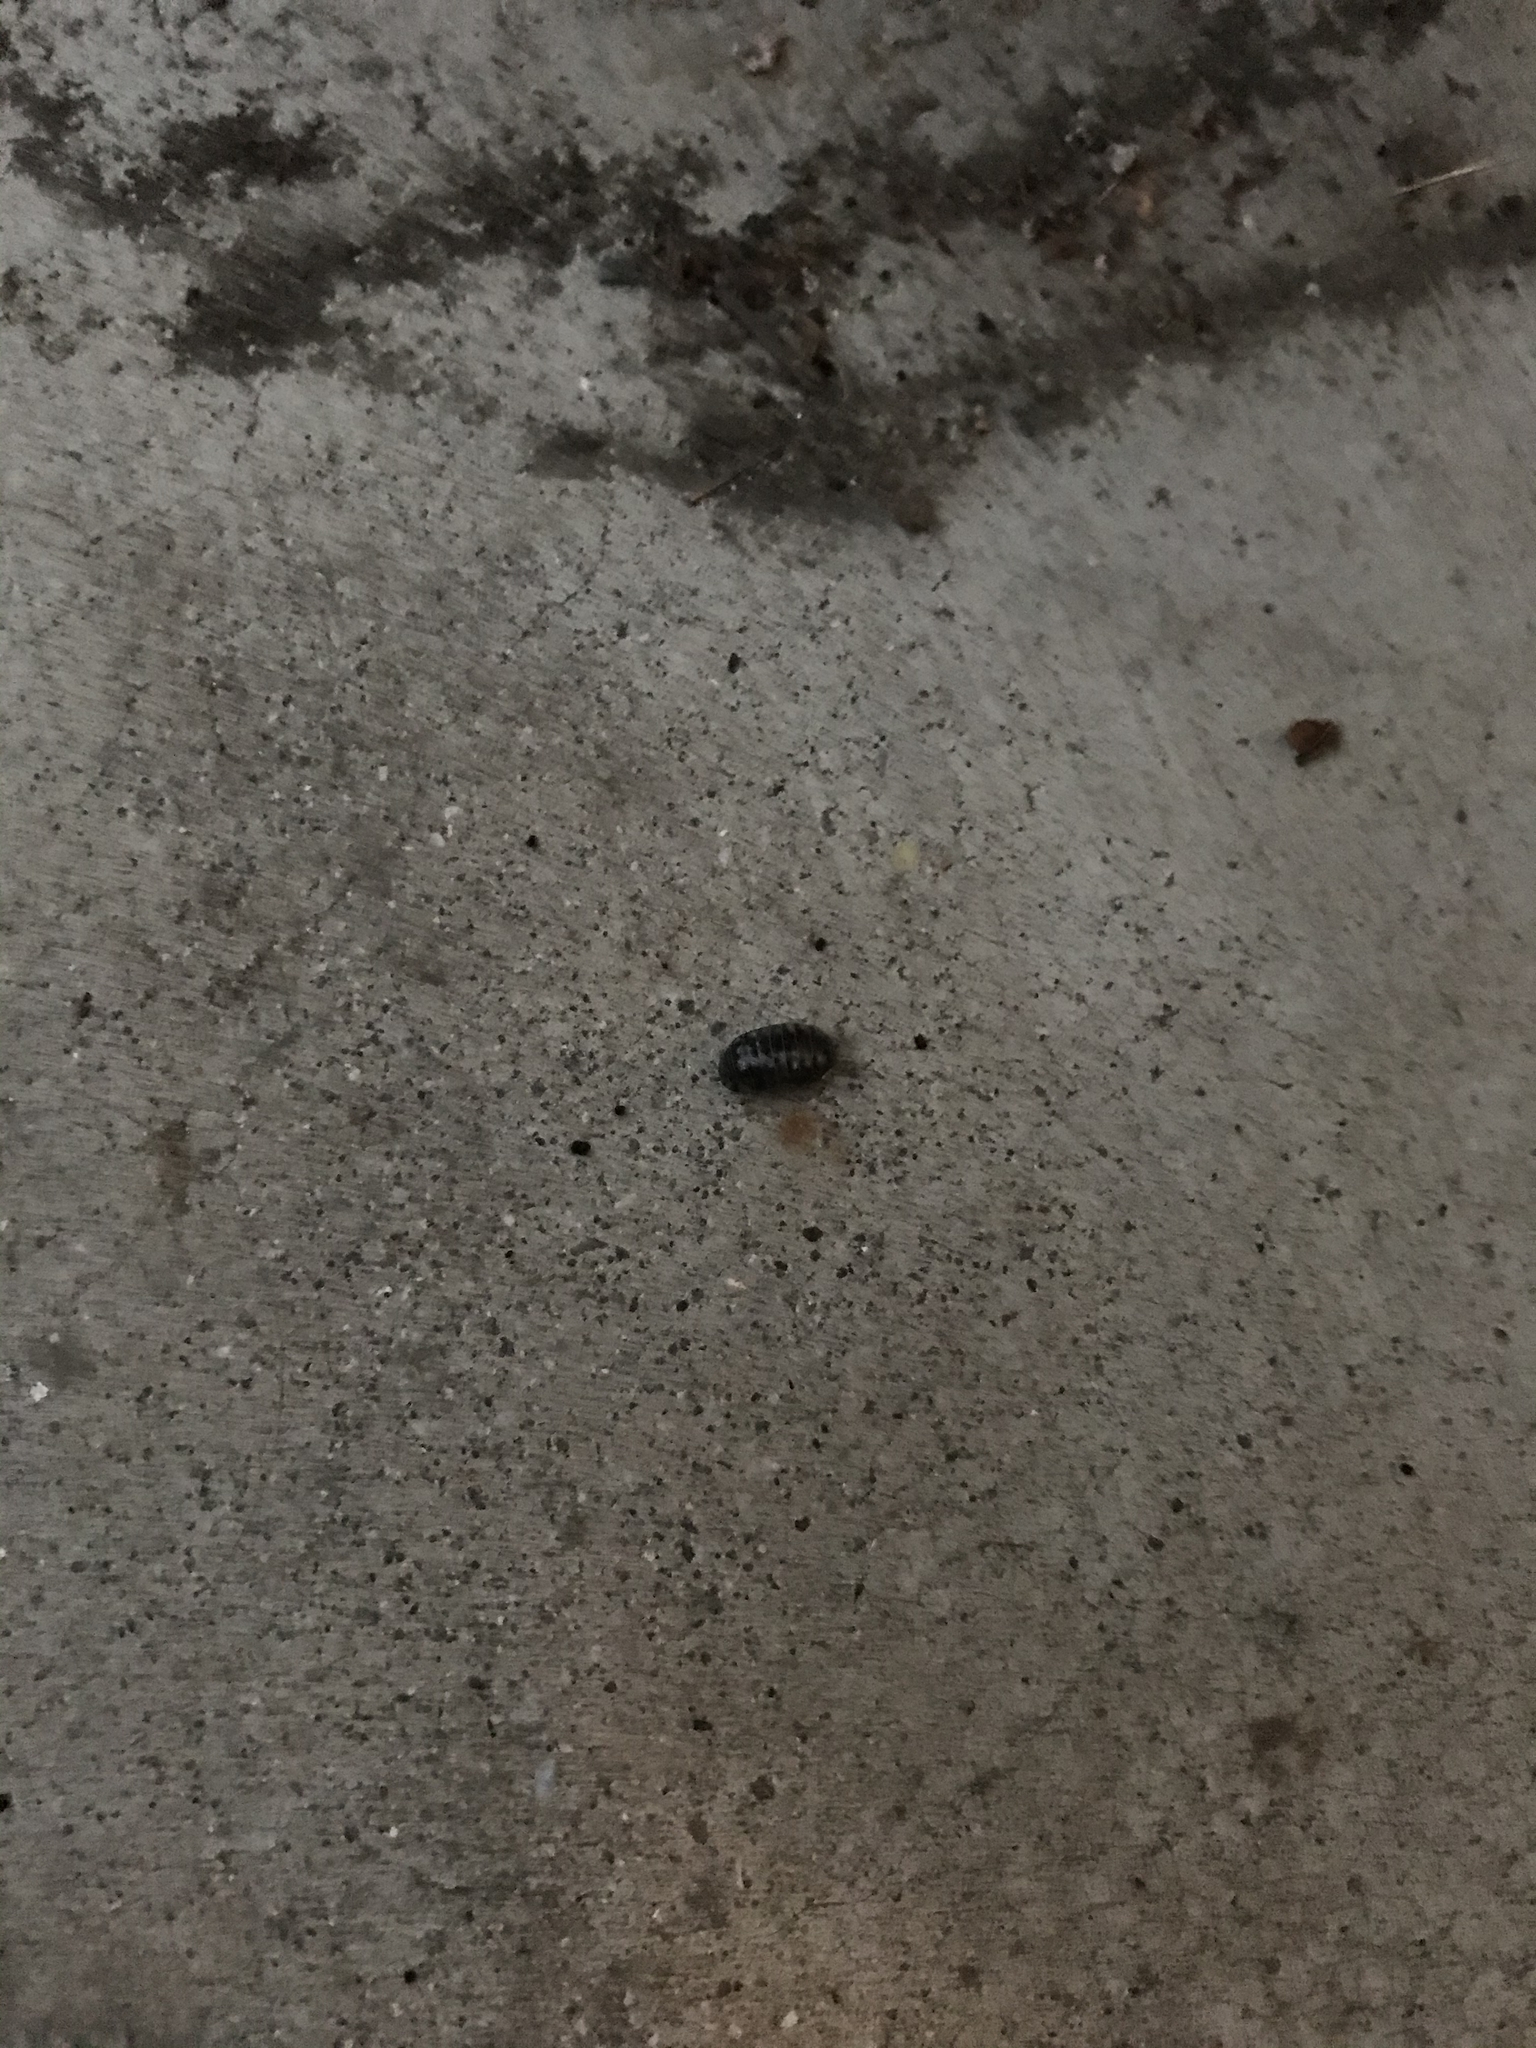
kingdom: Animalia
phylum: Arthropoda
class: Malacostraca
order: Isopoda
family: Armadillidiidae
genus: Armadillidium
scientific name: Armadillidium vulgare
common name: Common pill woodlouse
